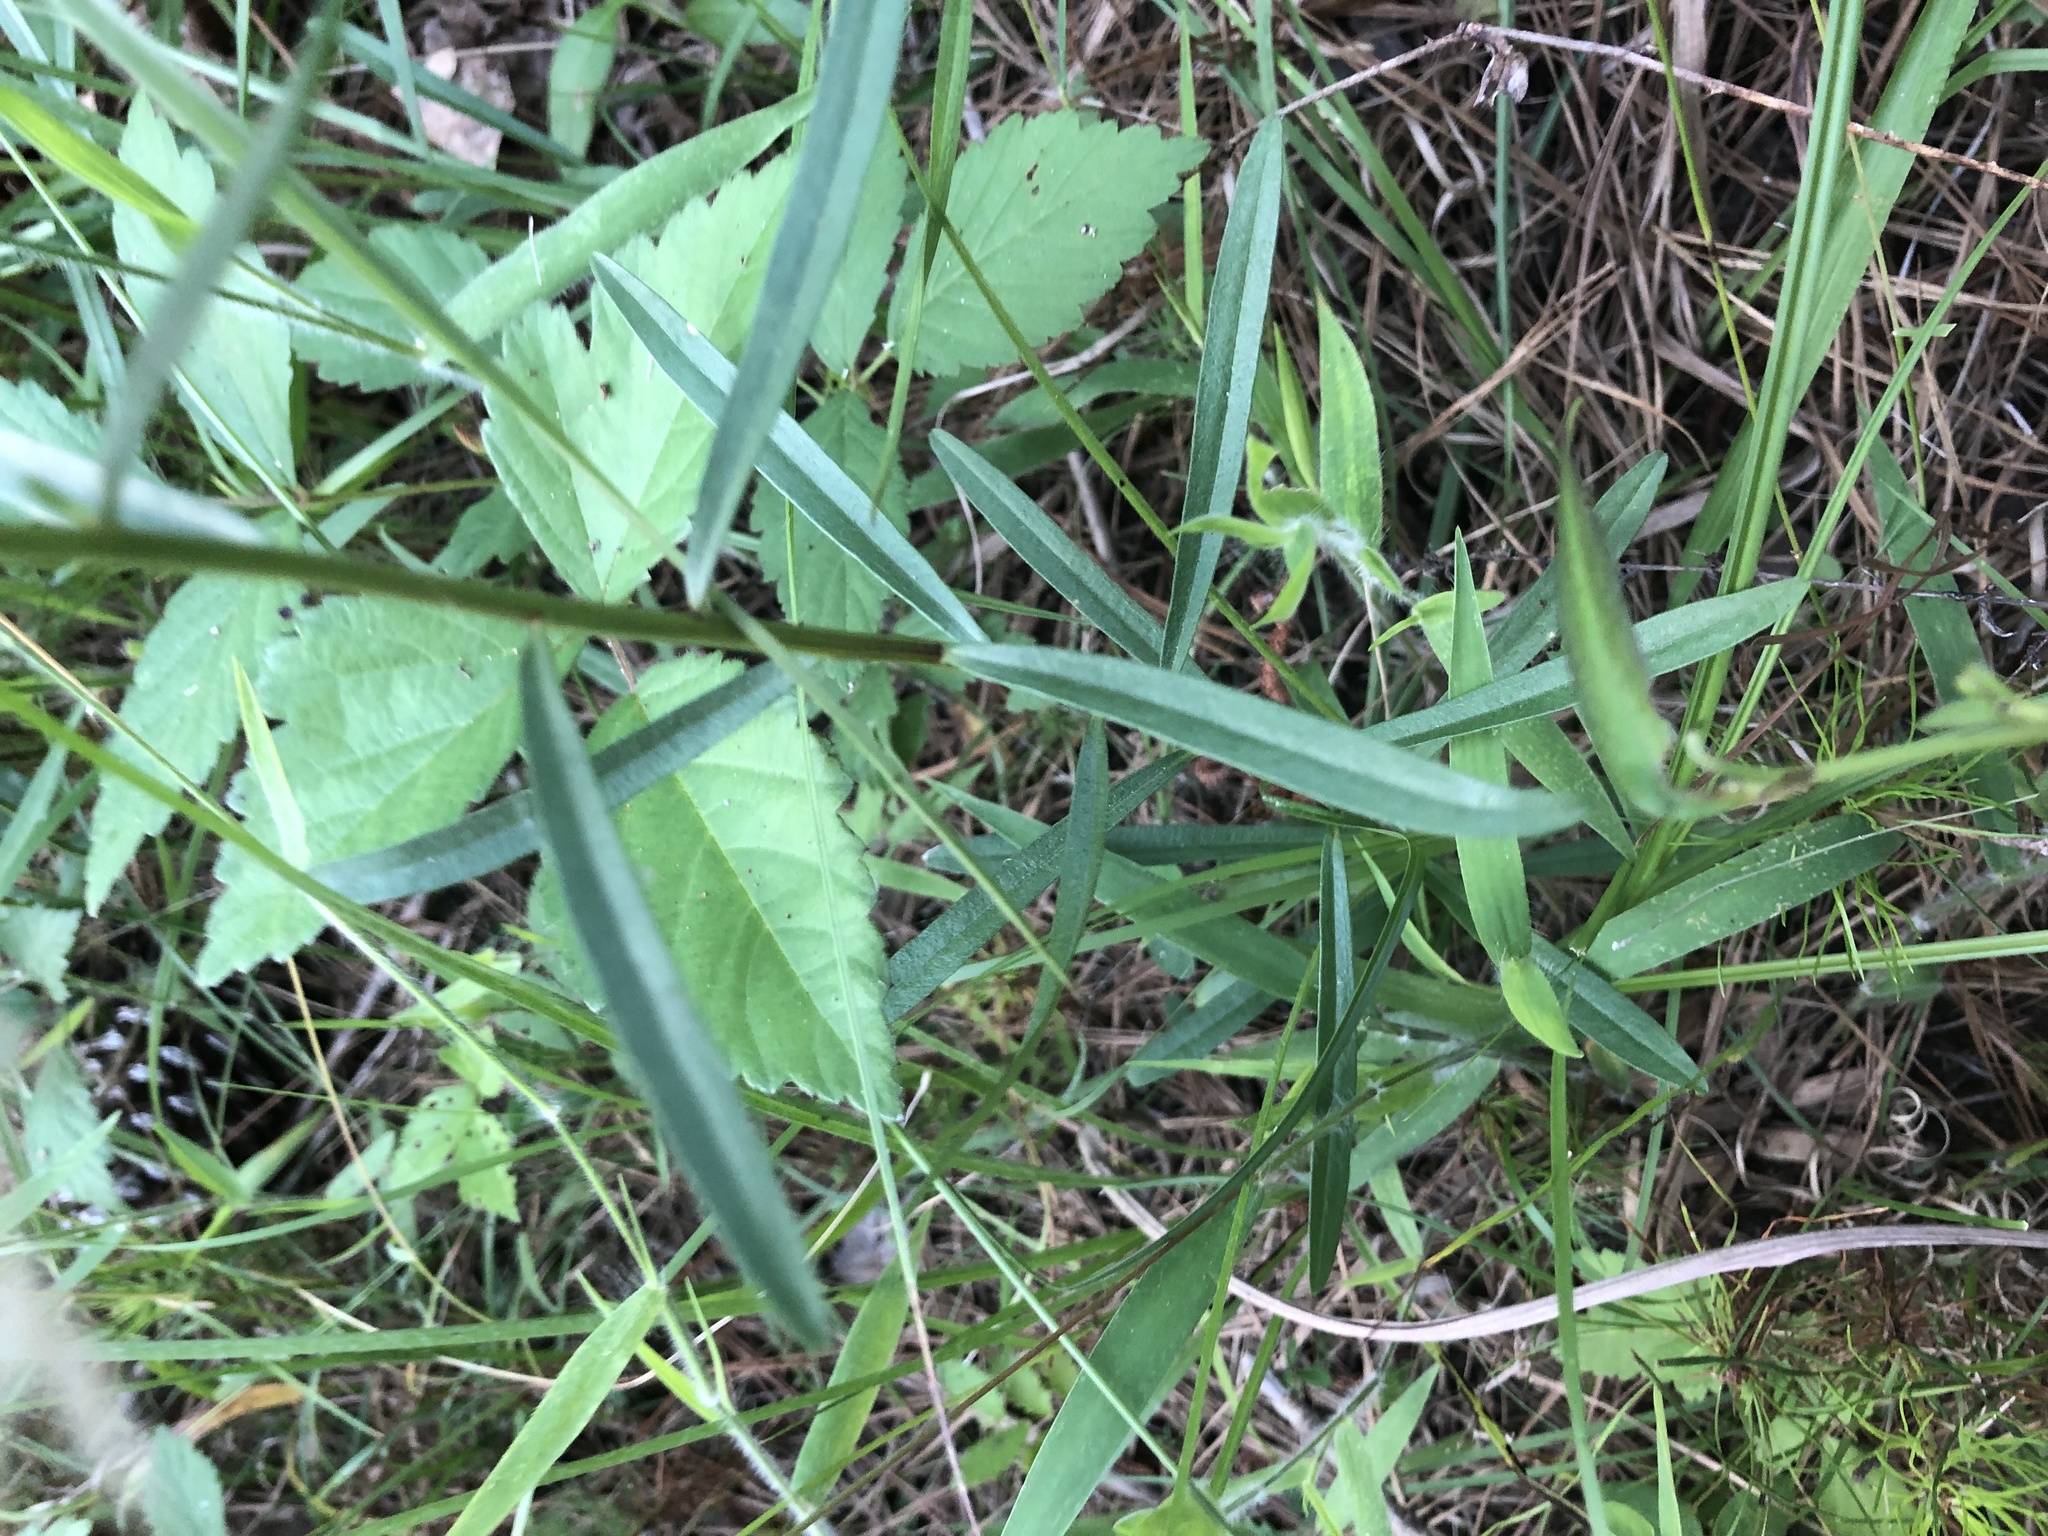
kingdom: Plantae
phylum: Tracheophyta
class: Magnoliopsida
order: Asterales
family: Asteraceae
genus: Sericocarpus
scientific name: Sericocarpus linifolius
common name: Narrow-leaf aster
